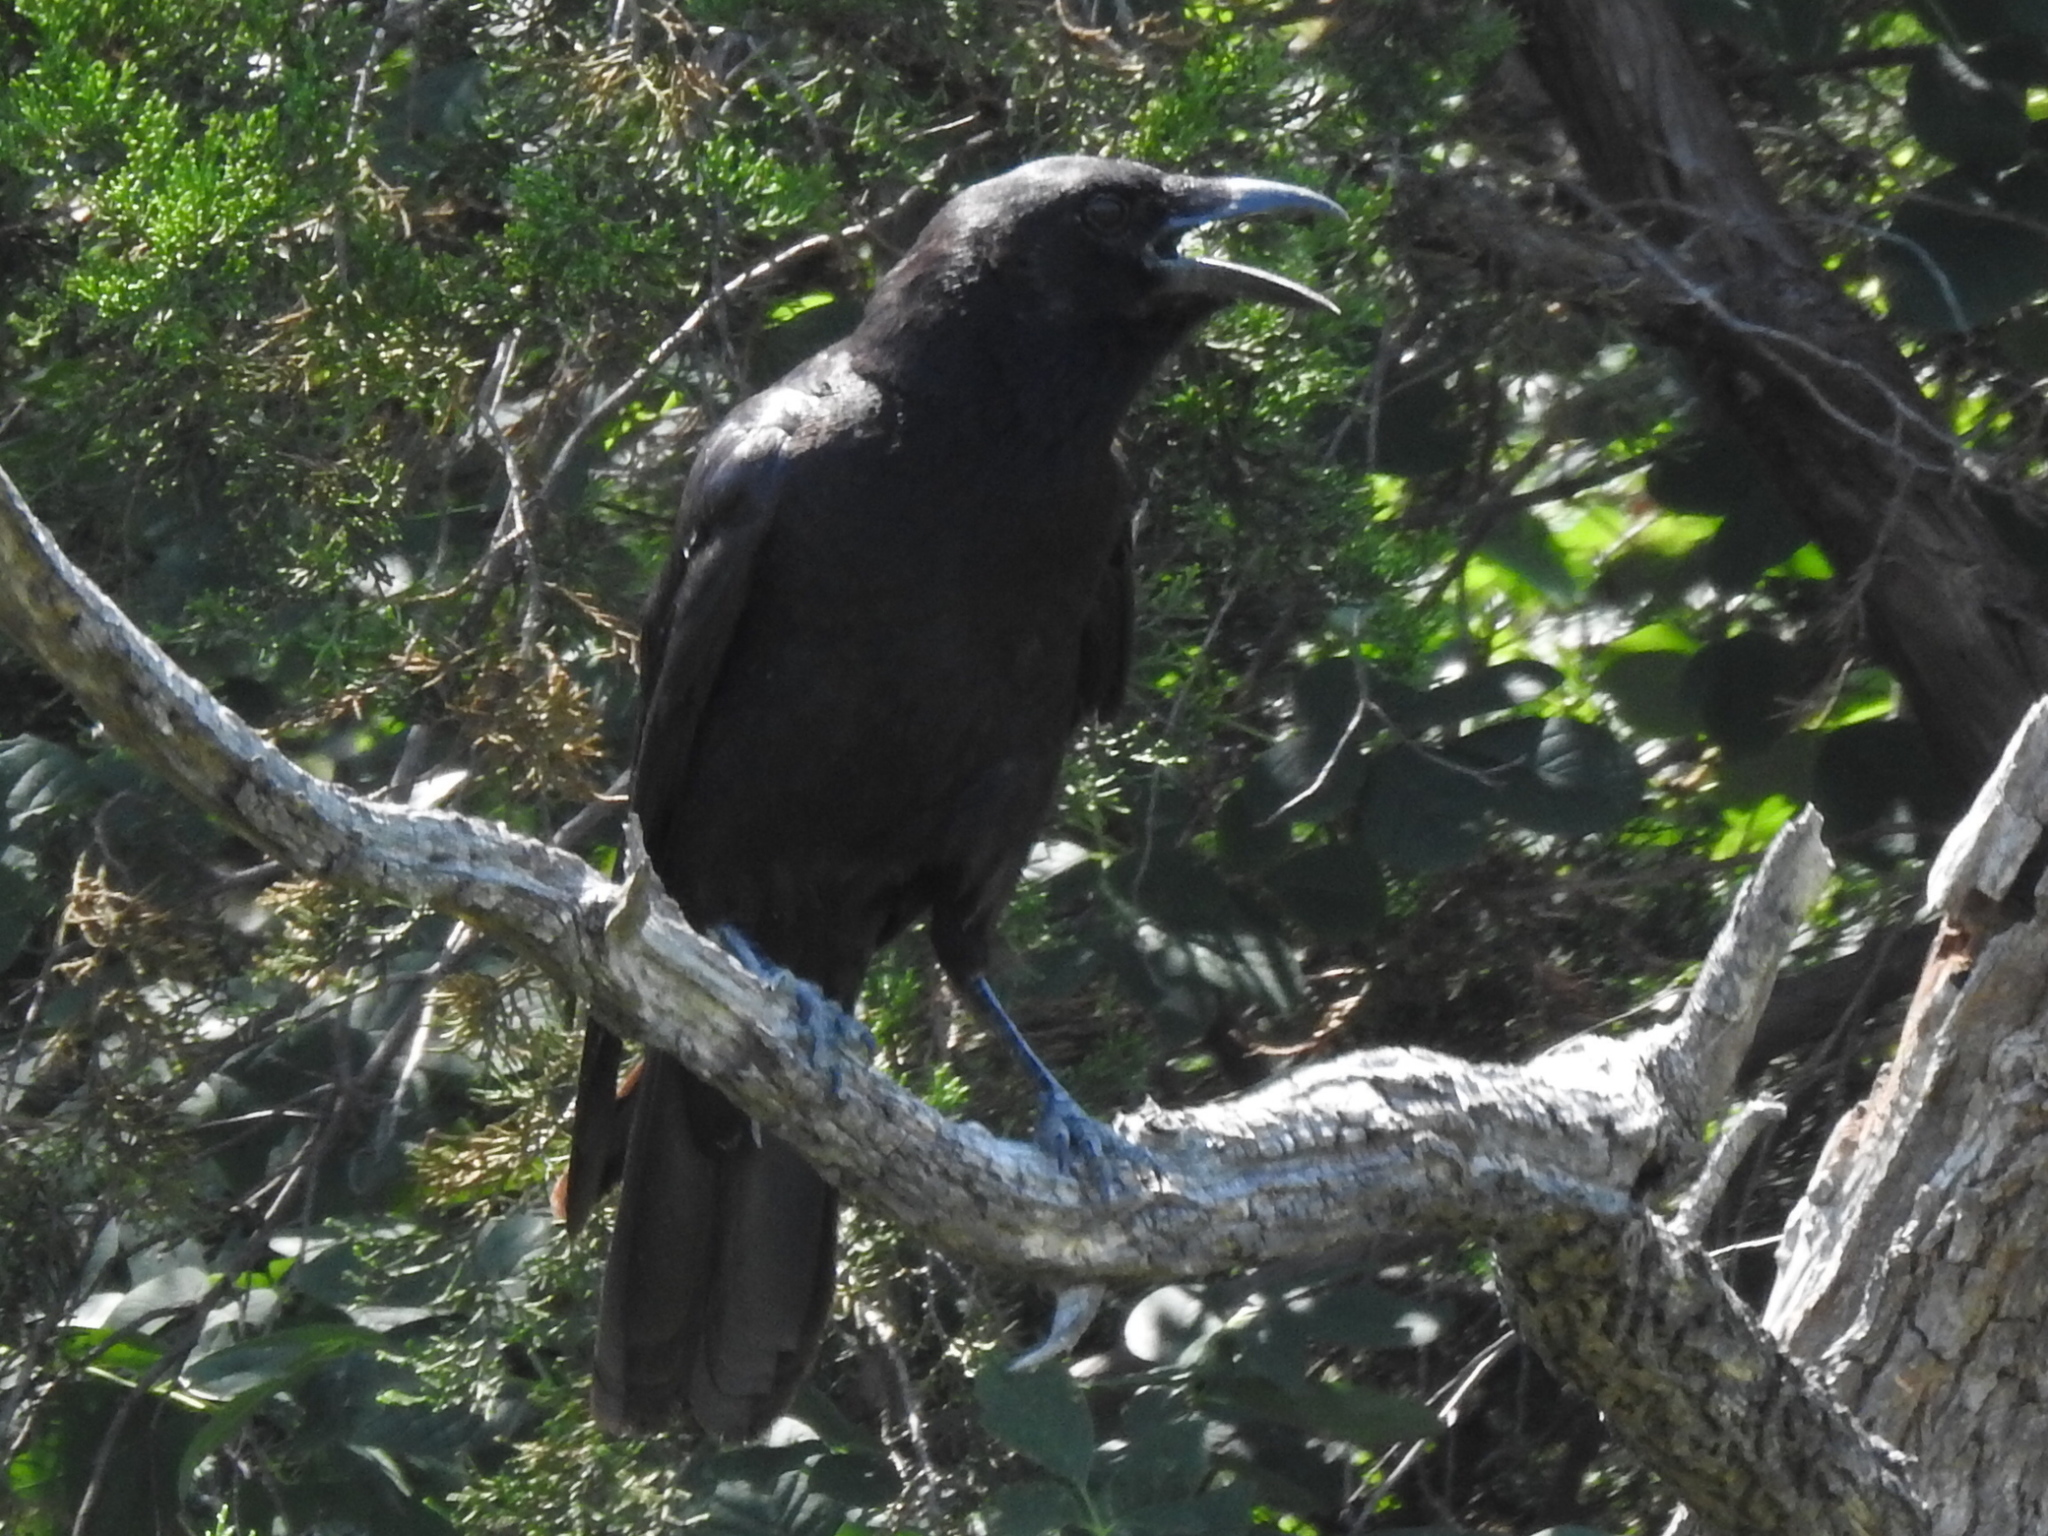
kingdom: Animalia
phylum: Chordata
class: Aves
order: Passeriformes
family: Corvidae
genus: Corvus
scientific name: Corvus brachyrhynchos
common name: American crow
